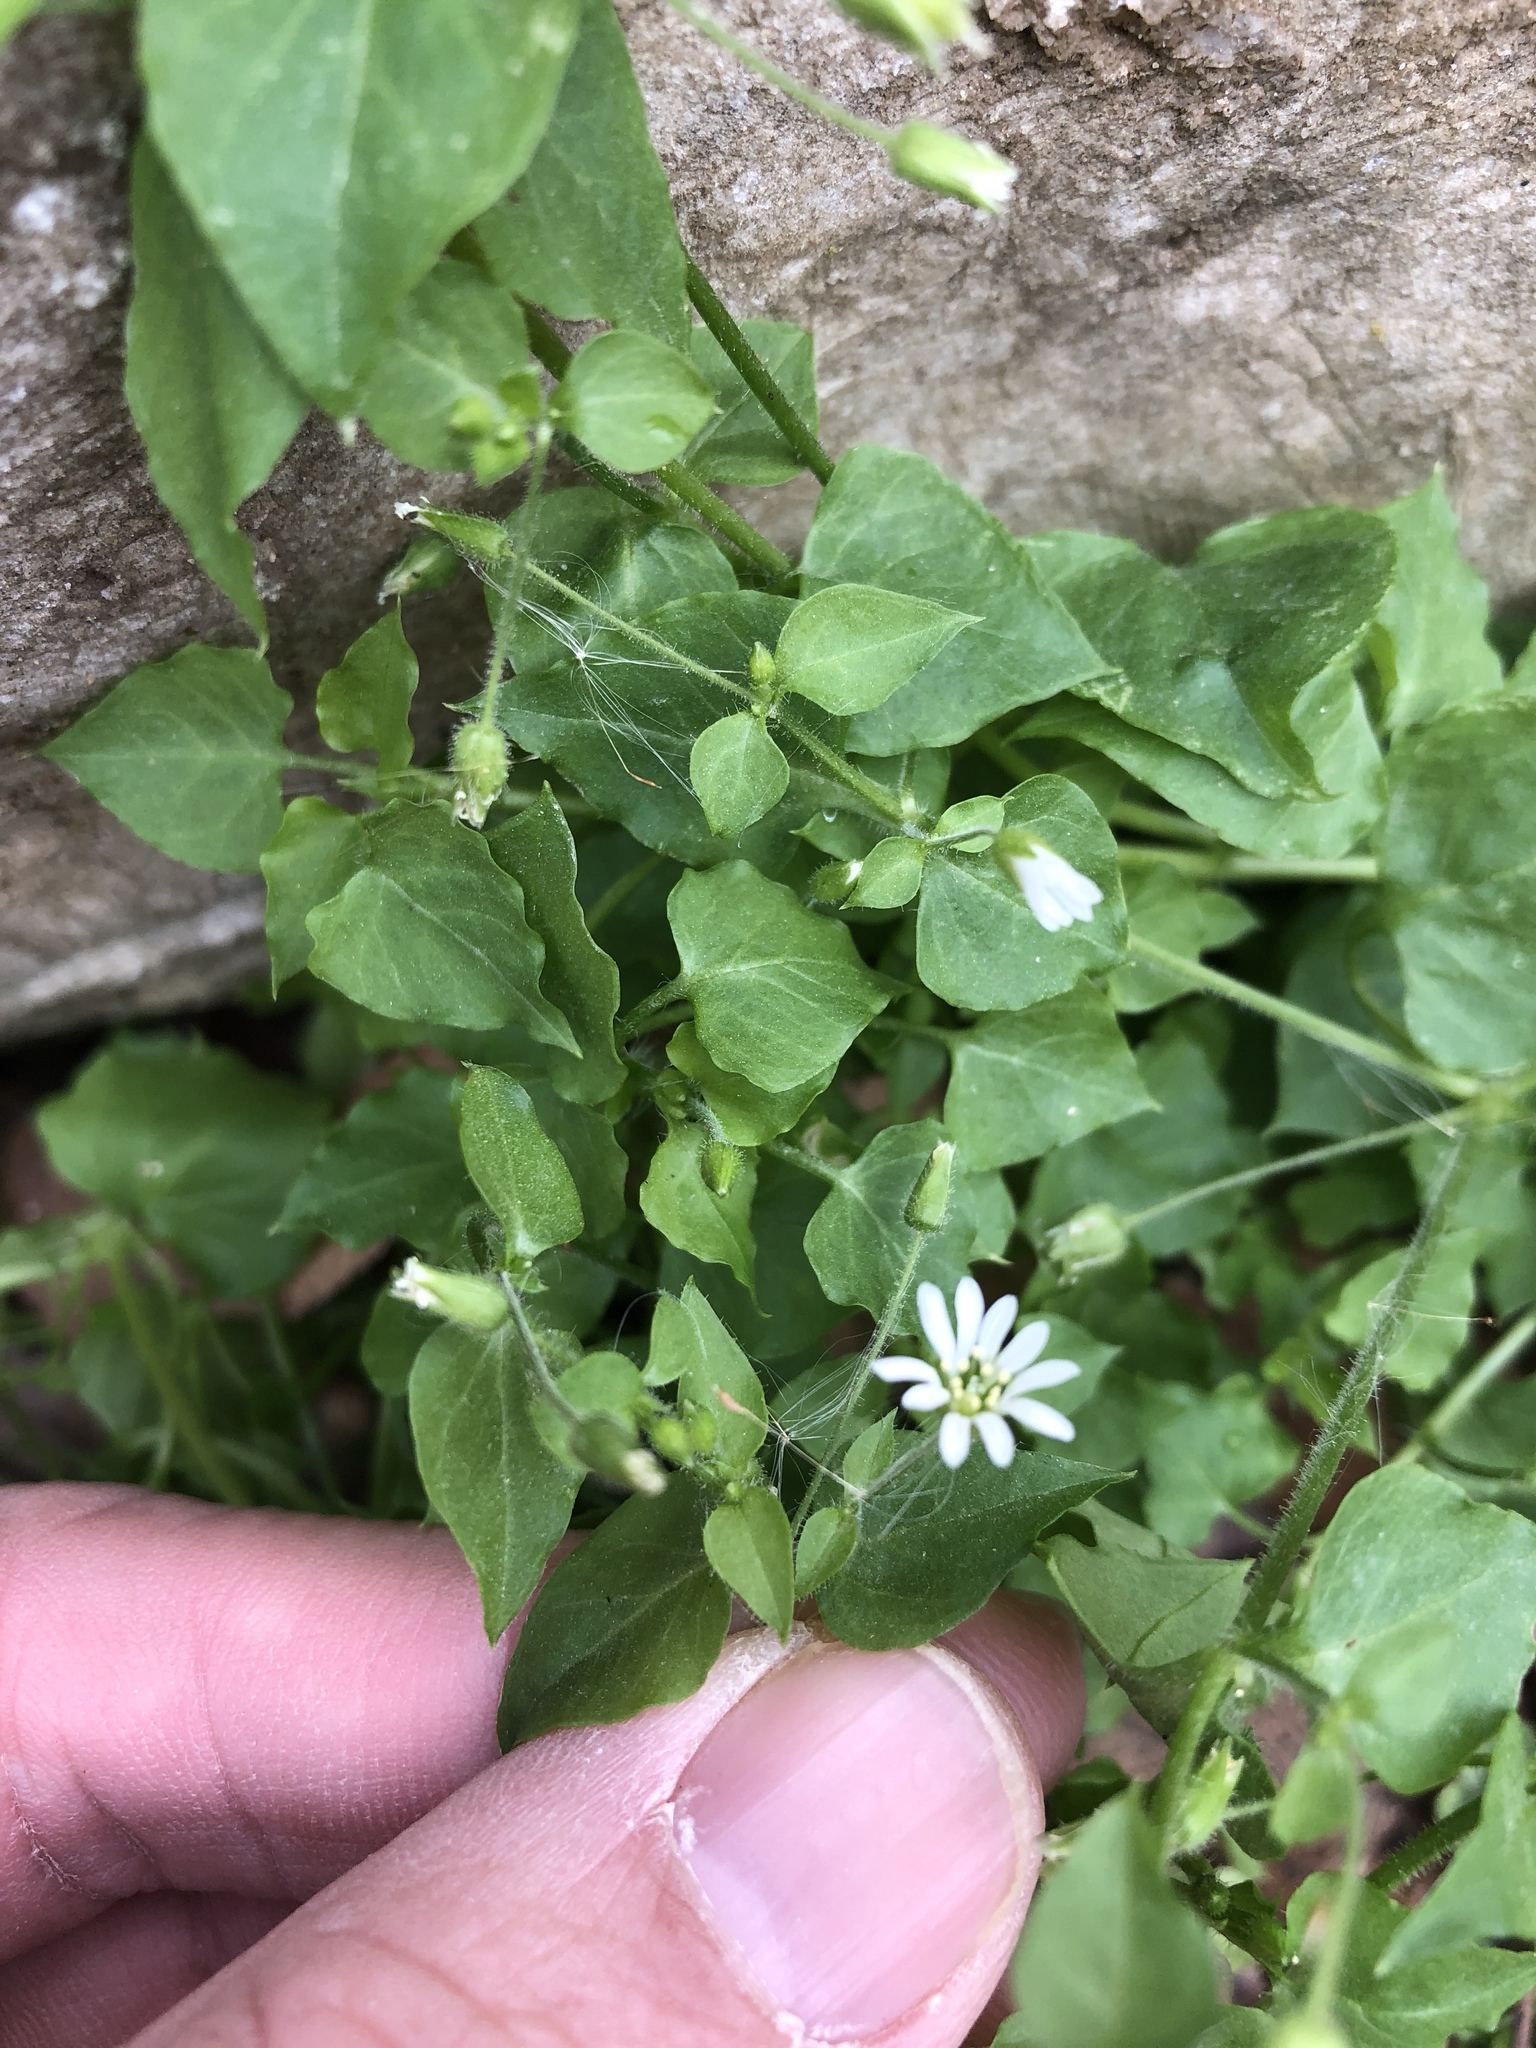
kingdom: Plantae
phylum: Tracheophyta
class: Magnoliopsida
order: Caryophyllales
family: Caryophyllaceae
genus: Stellaria
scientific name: Stellaria media
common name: Common chickweed
